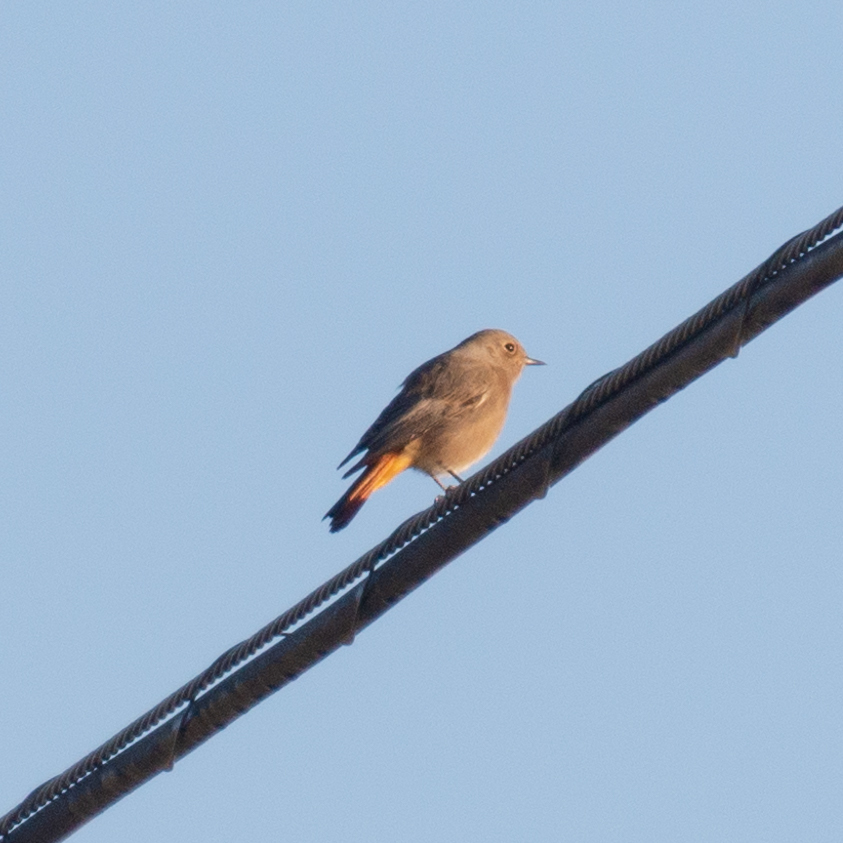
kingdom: Animalia
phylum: Chordata
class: Aves
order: Passeriformes
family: Muscicapidae
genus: Phoenicurus
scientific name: Phoenicurus ochruros
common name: Black redstart
